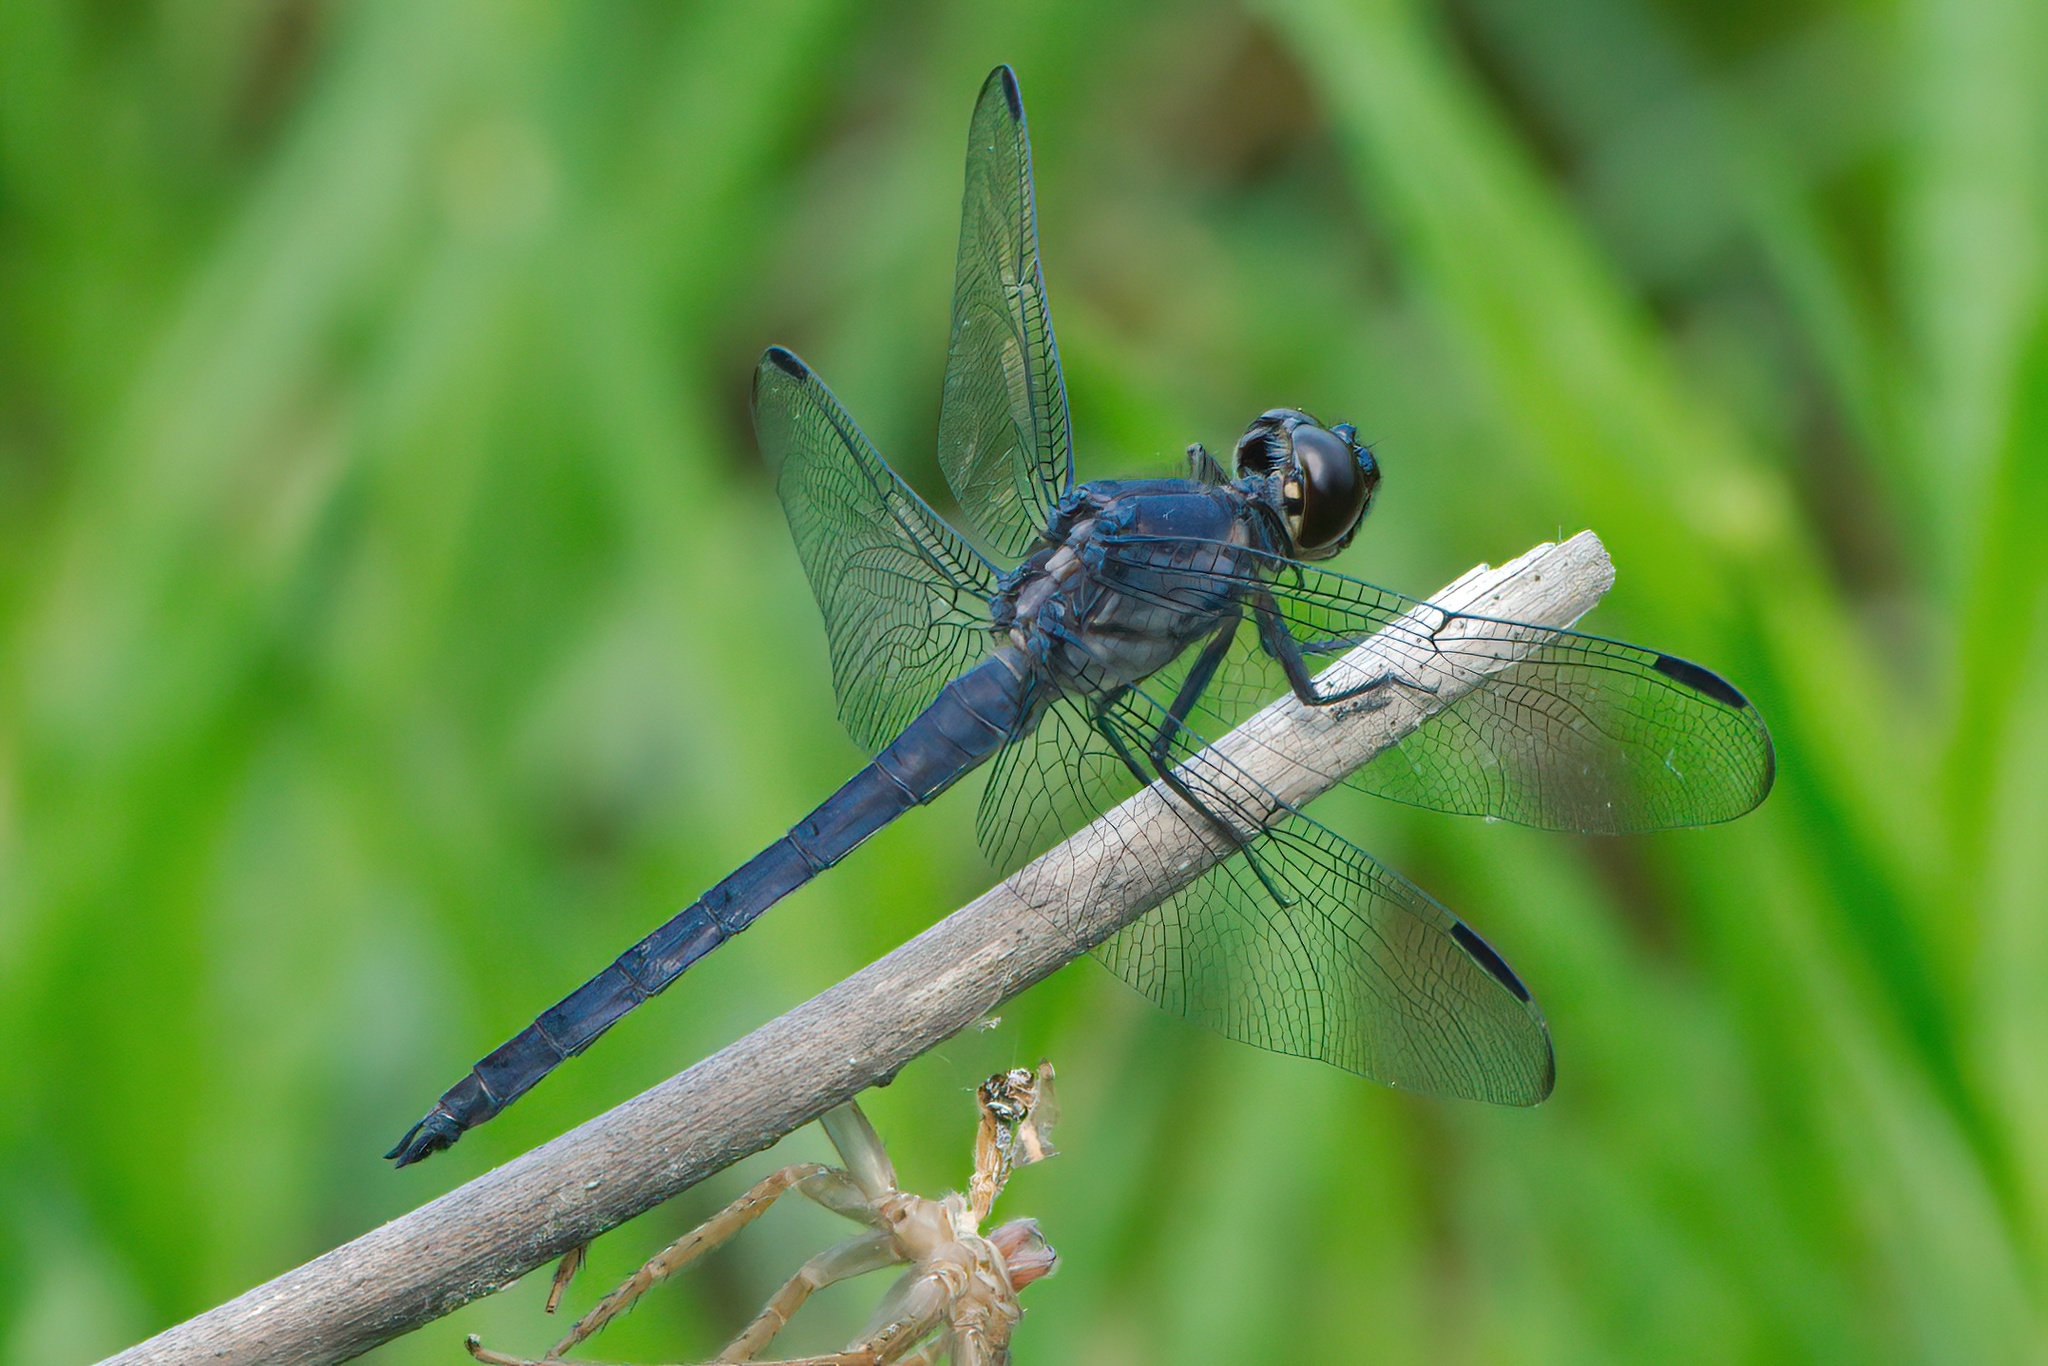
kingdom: Animalia
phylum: Arthropoda
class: Insecta
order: Odonata
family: Libellulidae
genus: Libellula
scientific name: Libellula incesta
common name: Slaty skimmer
